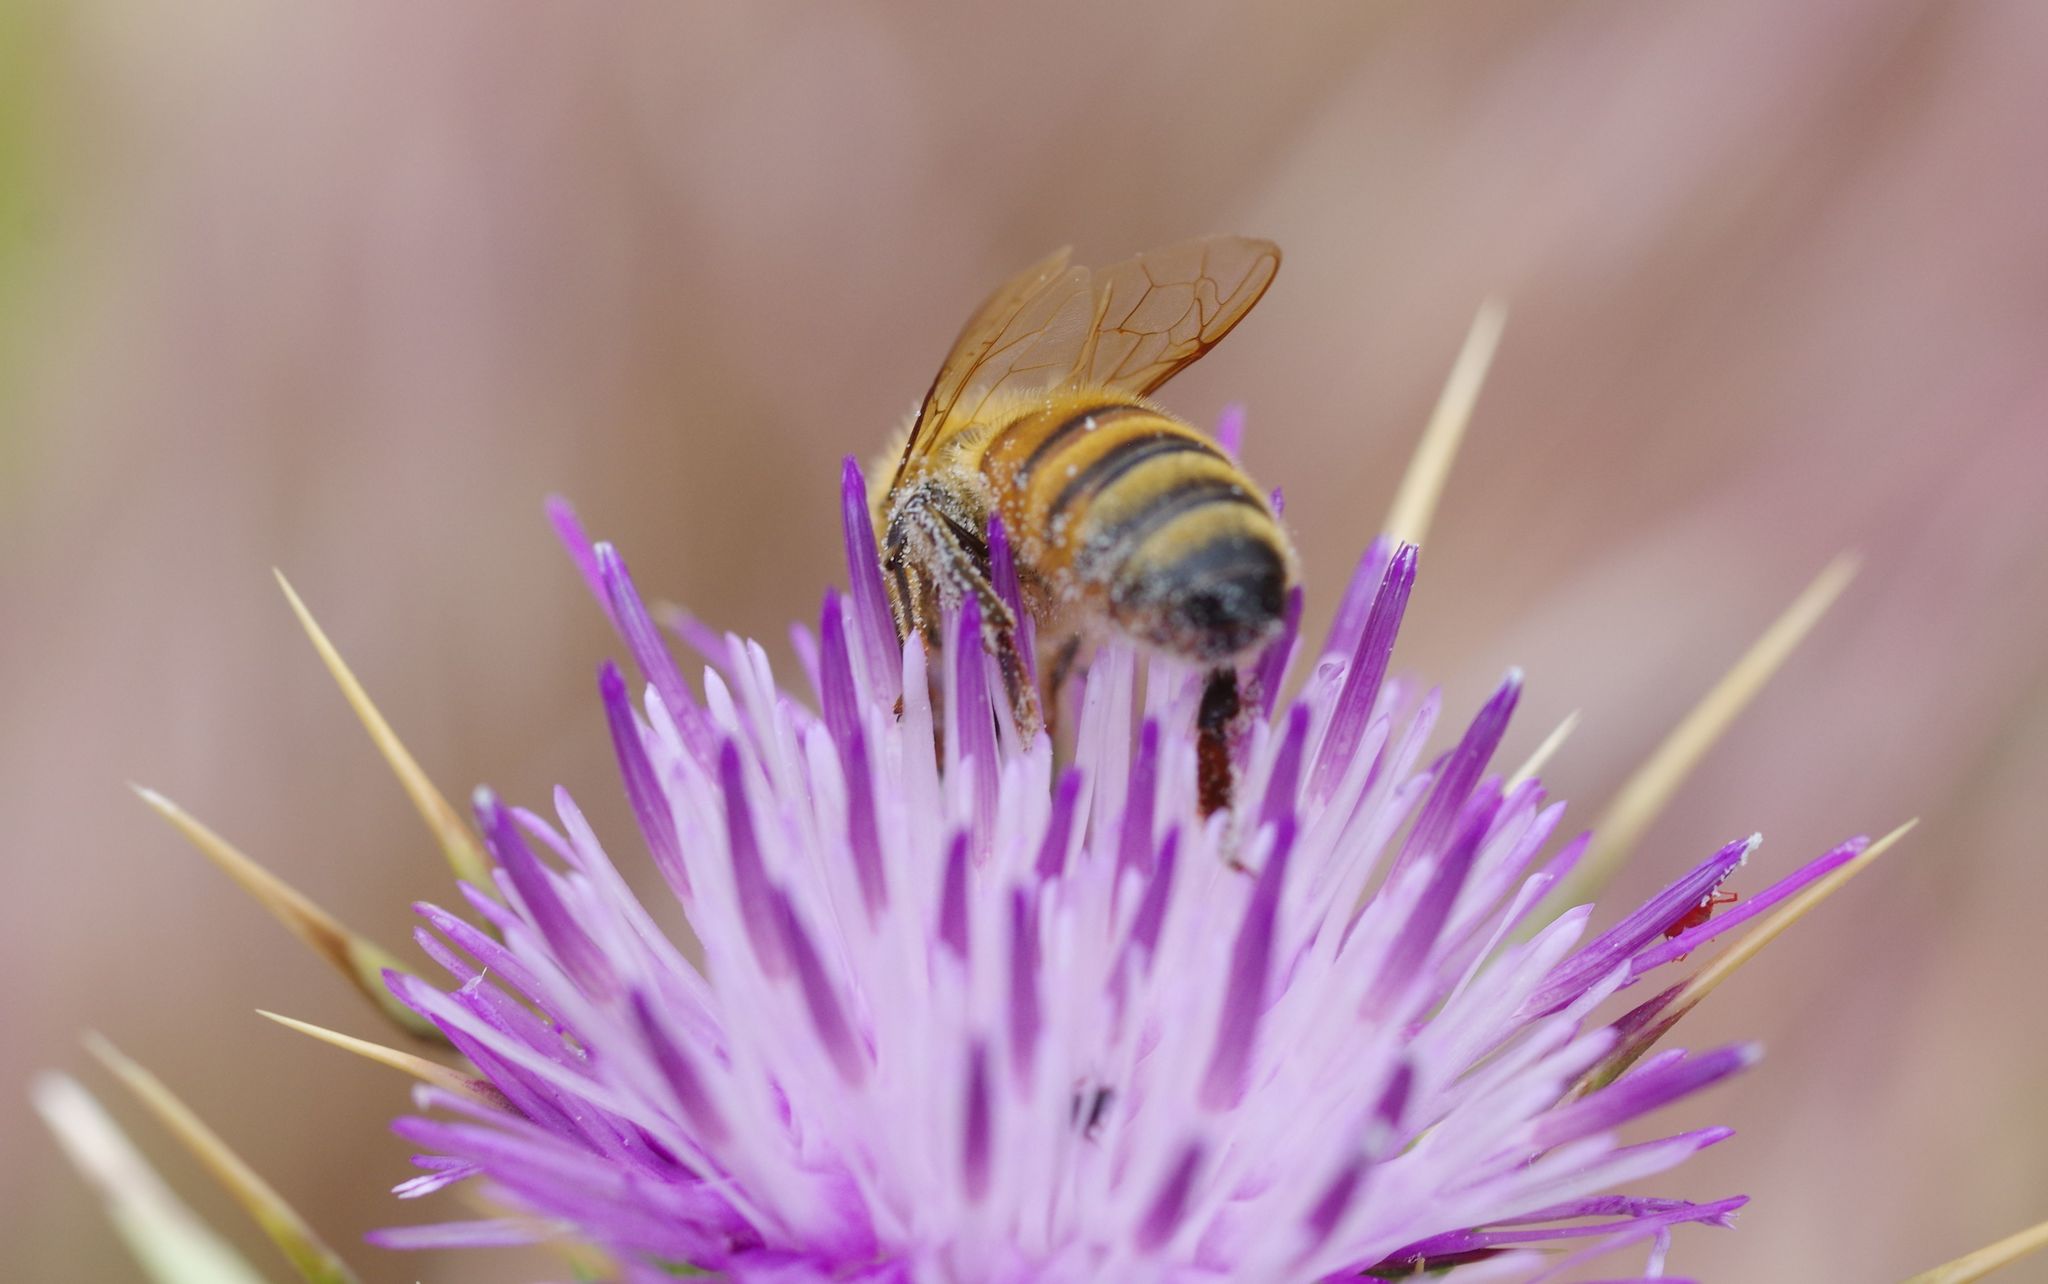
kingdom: Animalia
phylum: Arthropoda
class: Insecta
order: Hymenoptera
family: Apidae
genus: Apis
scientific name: Apis mellifera
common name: Honey bee
